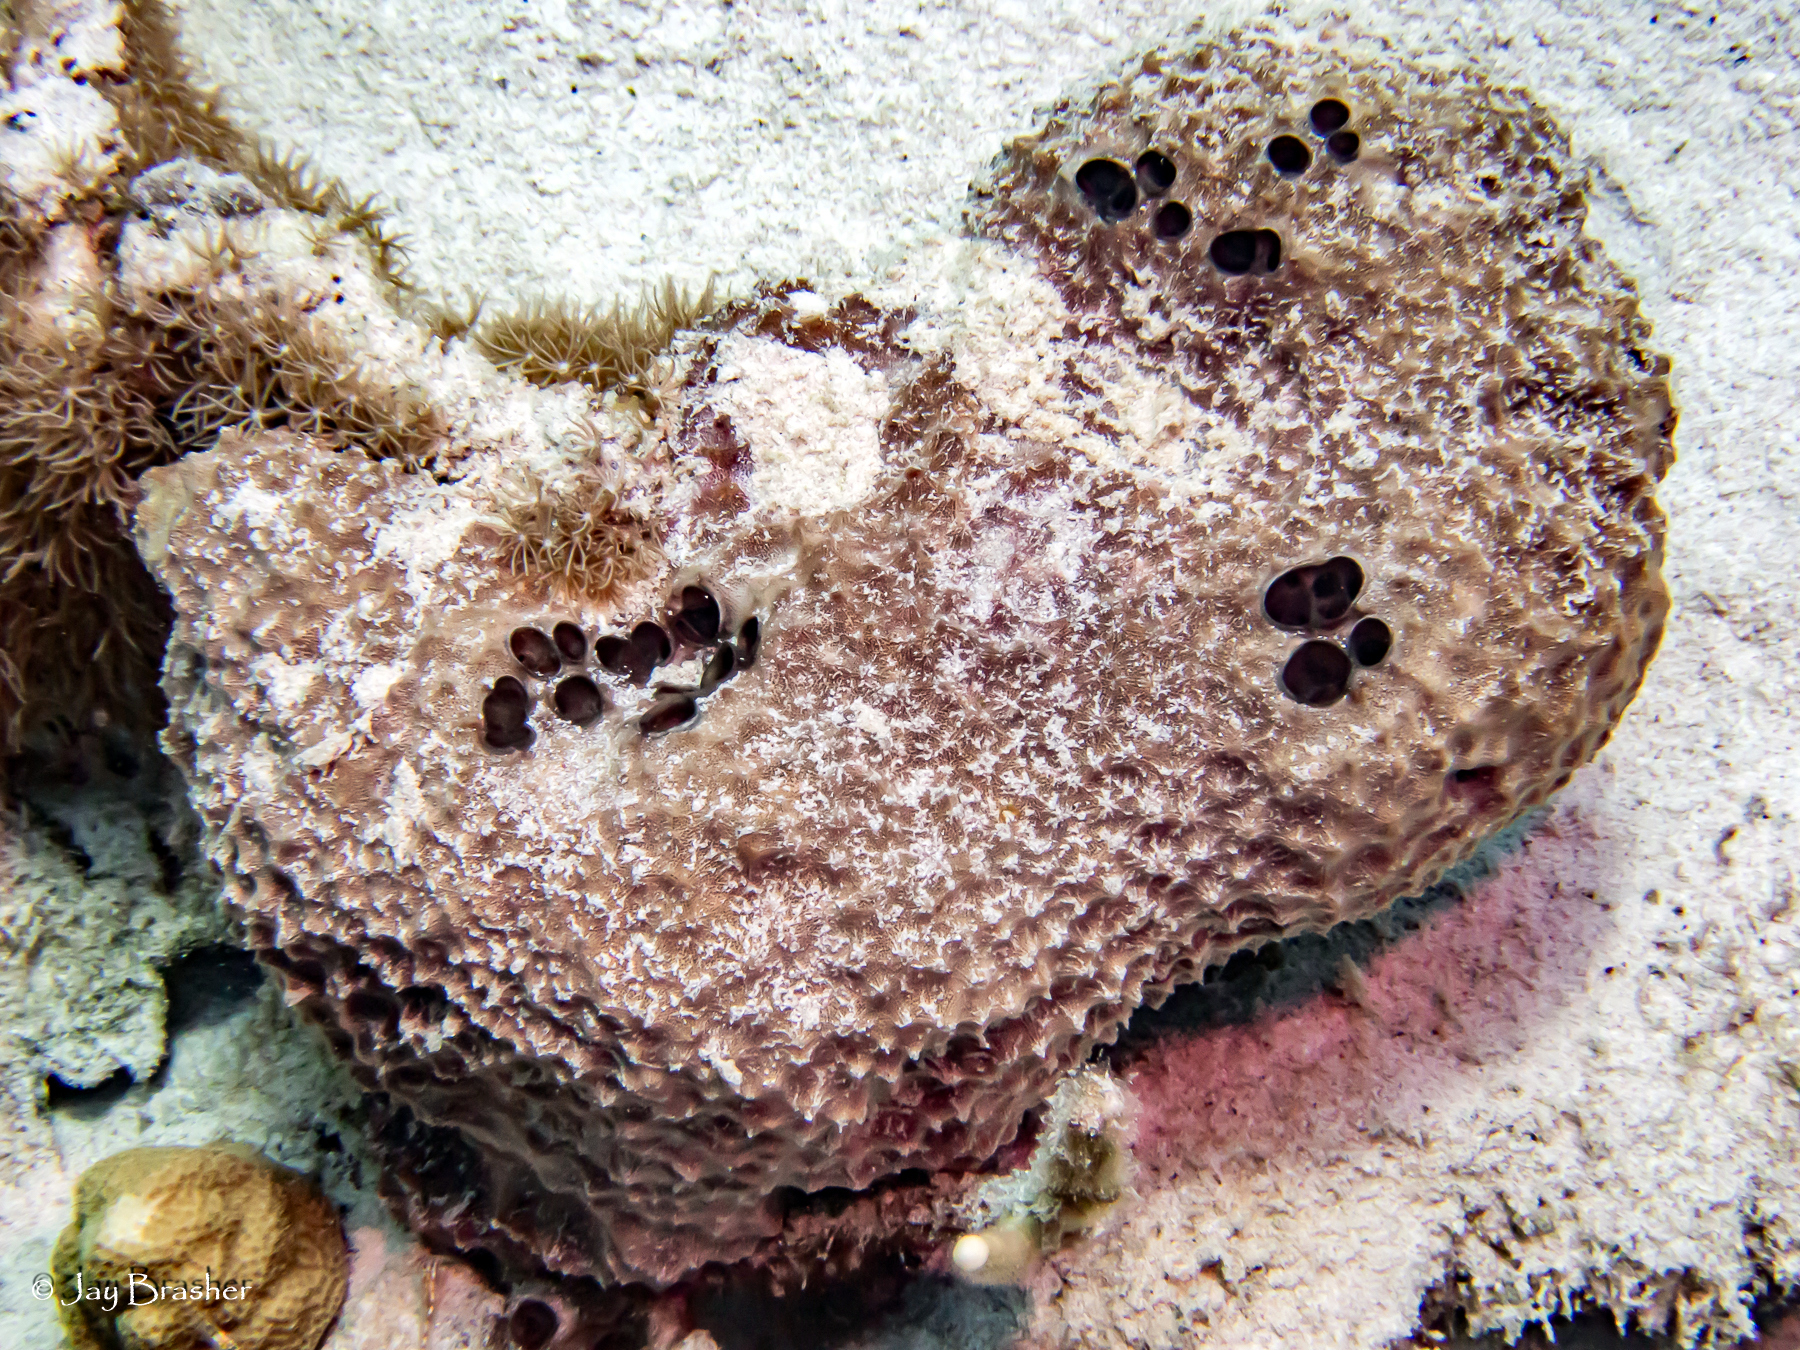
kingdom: Animalia
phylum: Porifera
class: Demospongiae
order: Dictyoceratida
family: Irciniidae
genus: Ircinia
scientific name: Ircinia felix
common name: Stinker sponge
